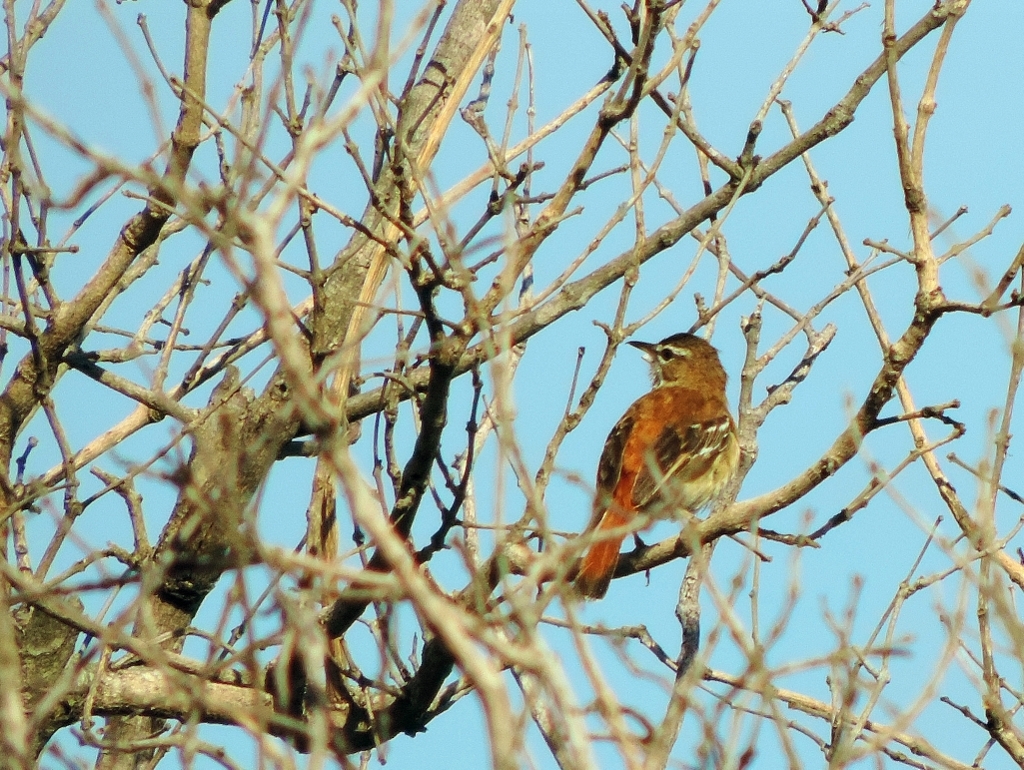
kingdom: Animalia
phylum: Chordata
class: Aves
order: Passeriformes
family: Muscicapidae
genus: Erythropygia
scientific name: Erythropygia leucophrys
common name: White-browed scrub robin
